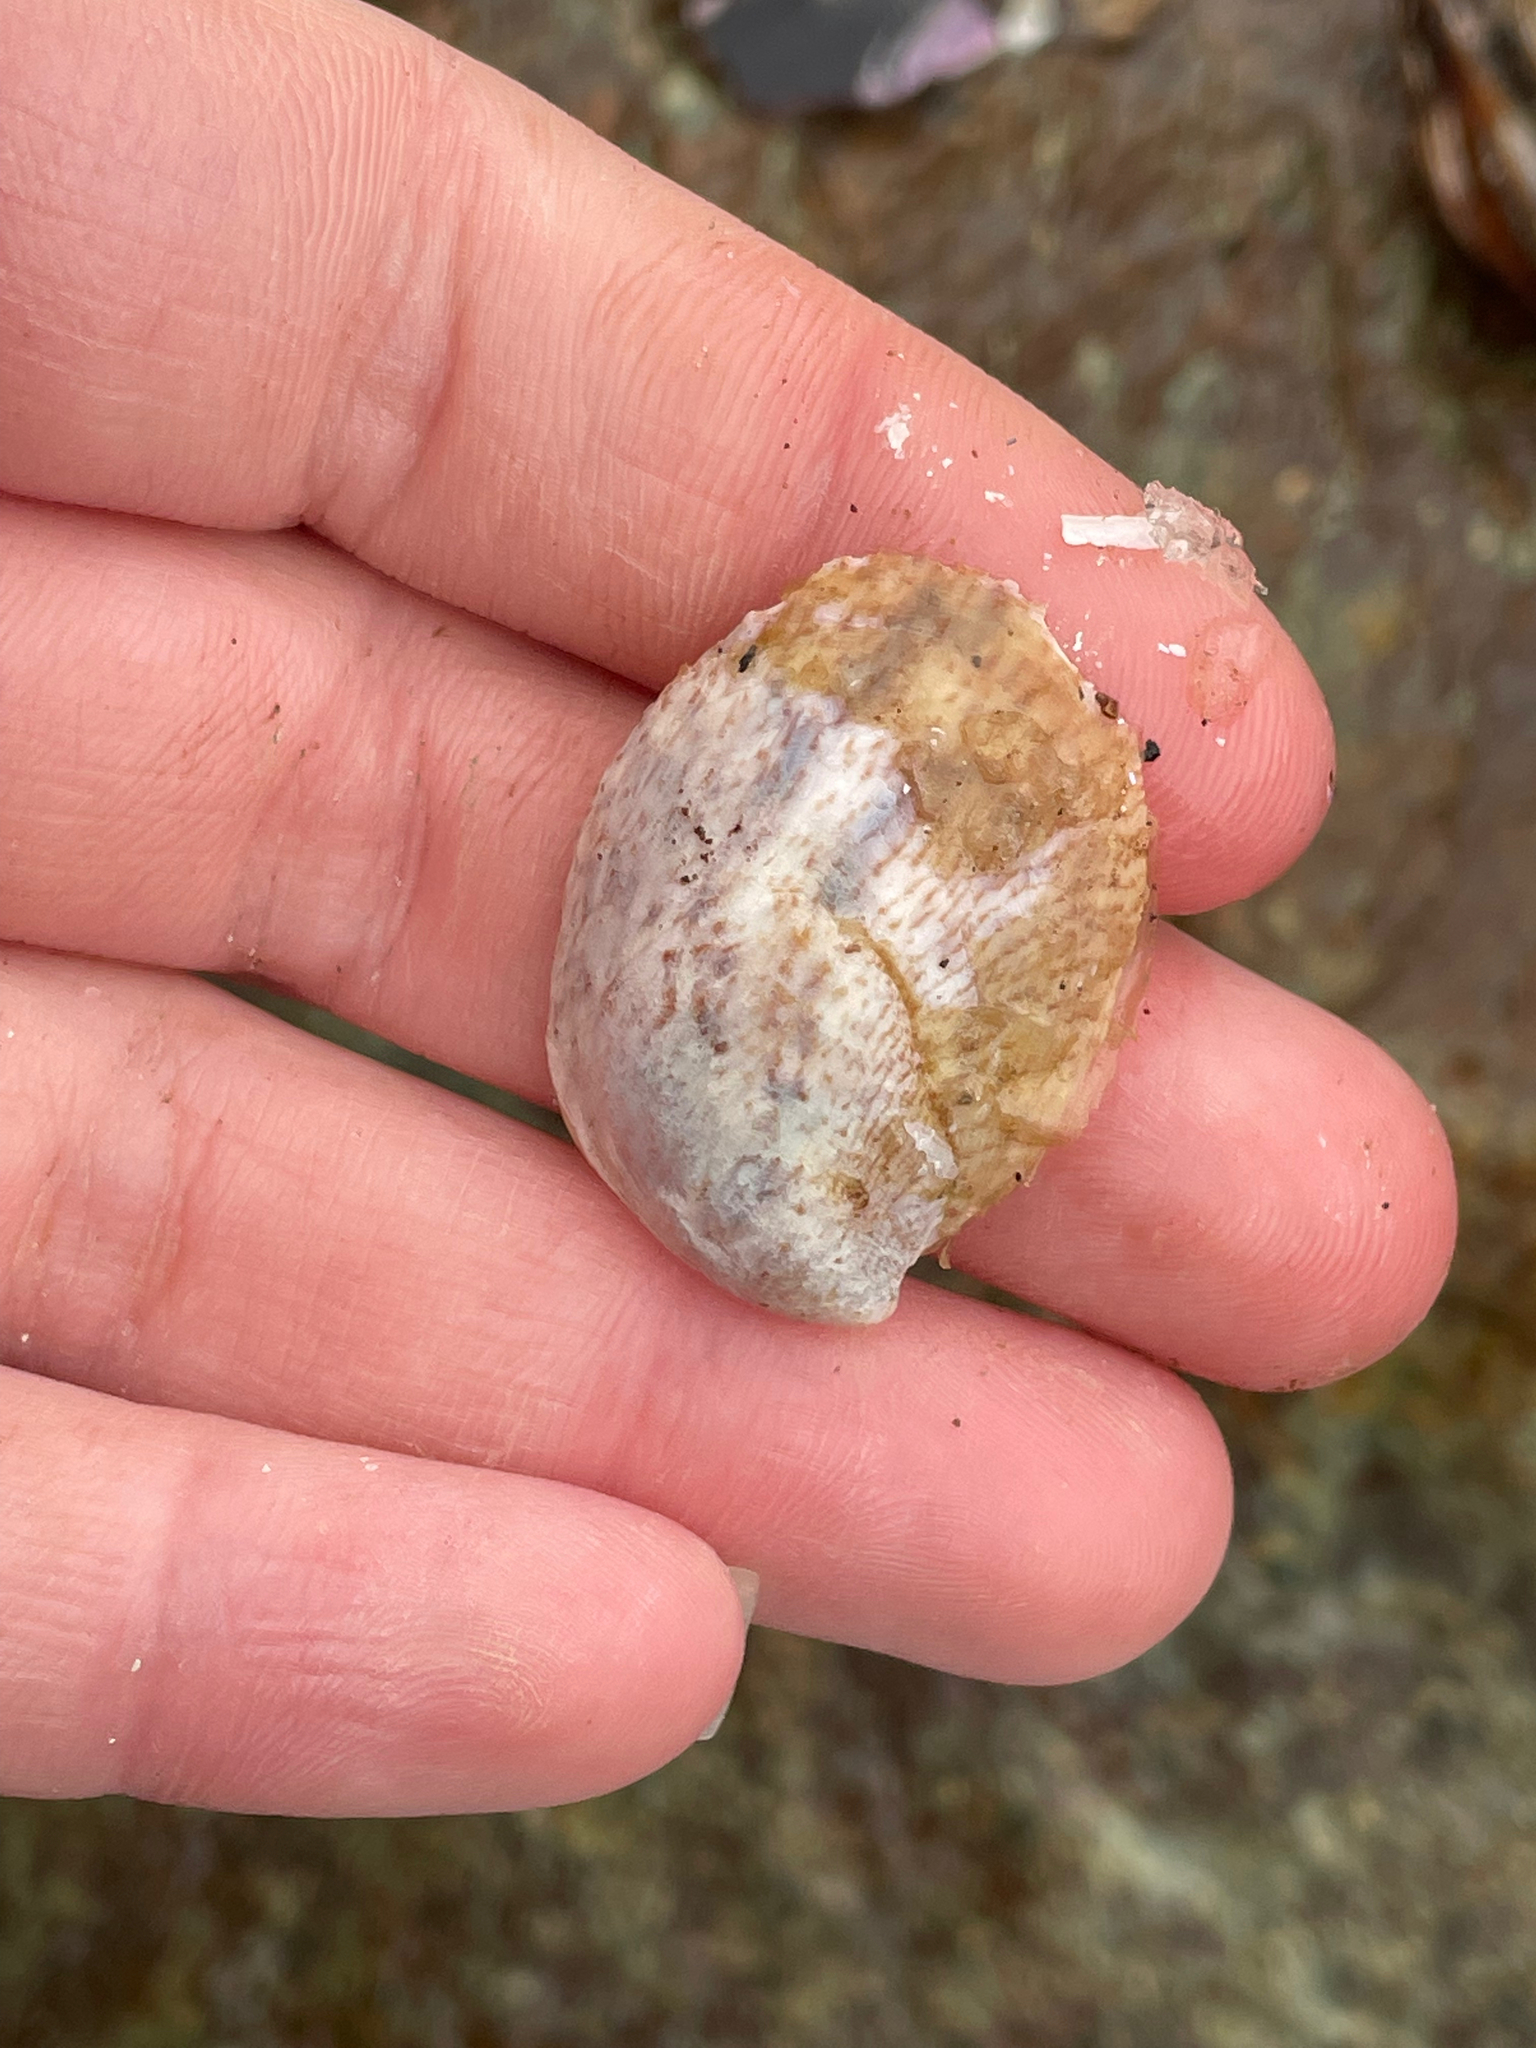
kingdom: Animalia
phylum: Mollusca
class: Gastropoda
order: Littorinimorpha
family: Calyptraeidae
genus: Crepidula
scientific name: Crepidula fornicata
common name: Slipper limpet
